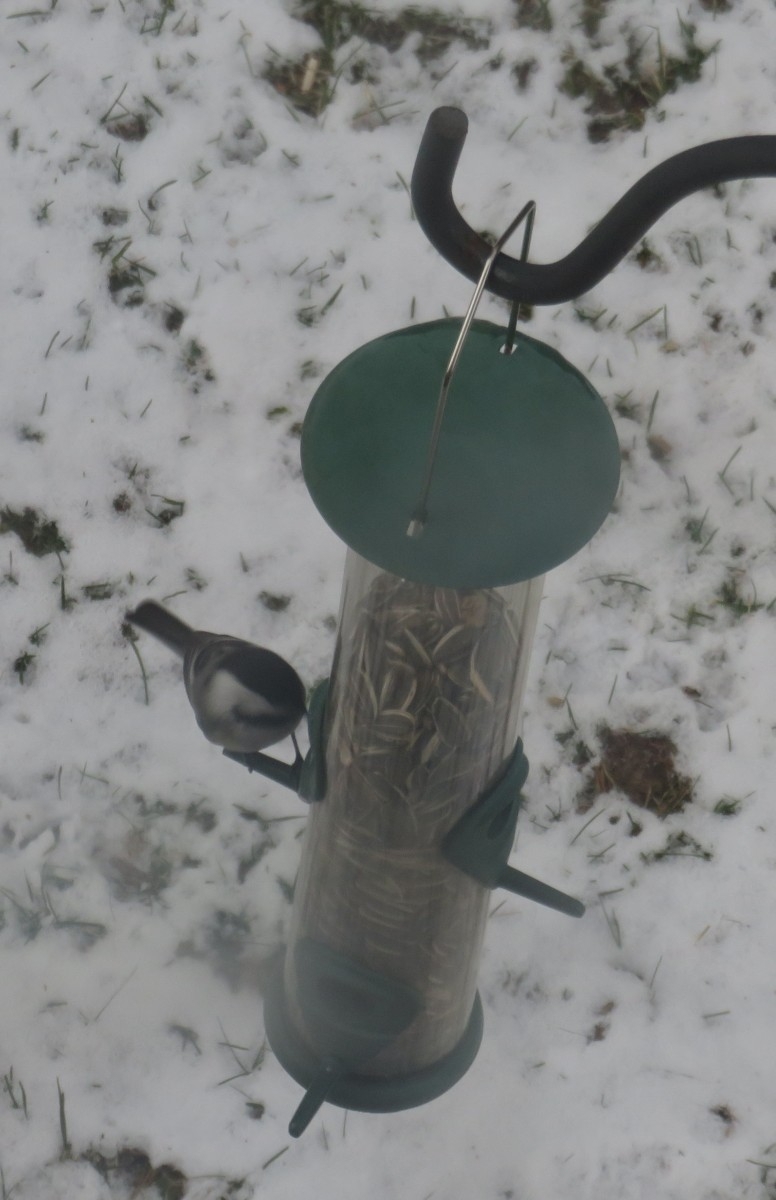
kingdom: Animalia
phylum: Chordata
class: Aves
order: Passeriformes
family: Paridae
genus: Poecile
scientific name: Poecile atricapillus
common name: Black-capped chickadee
